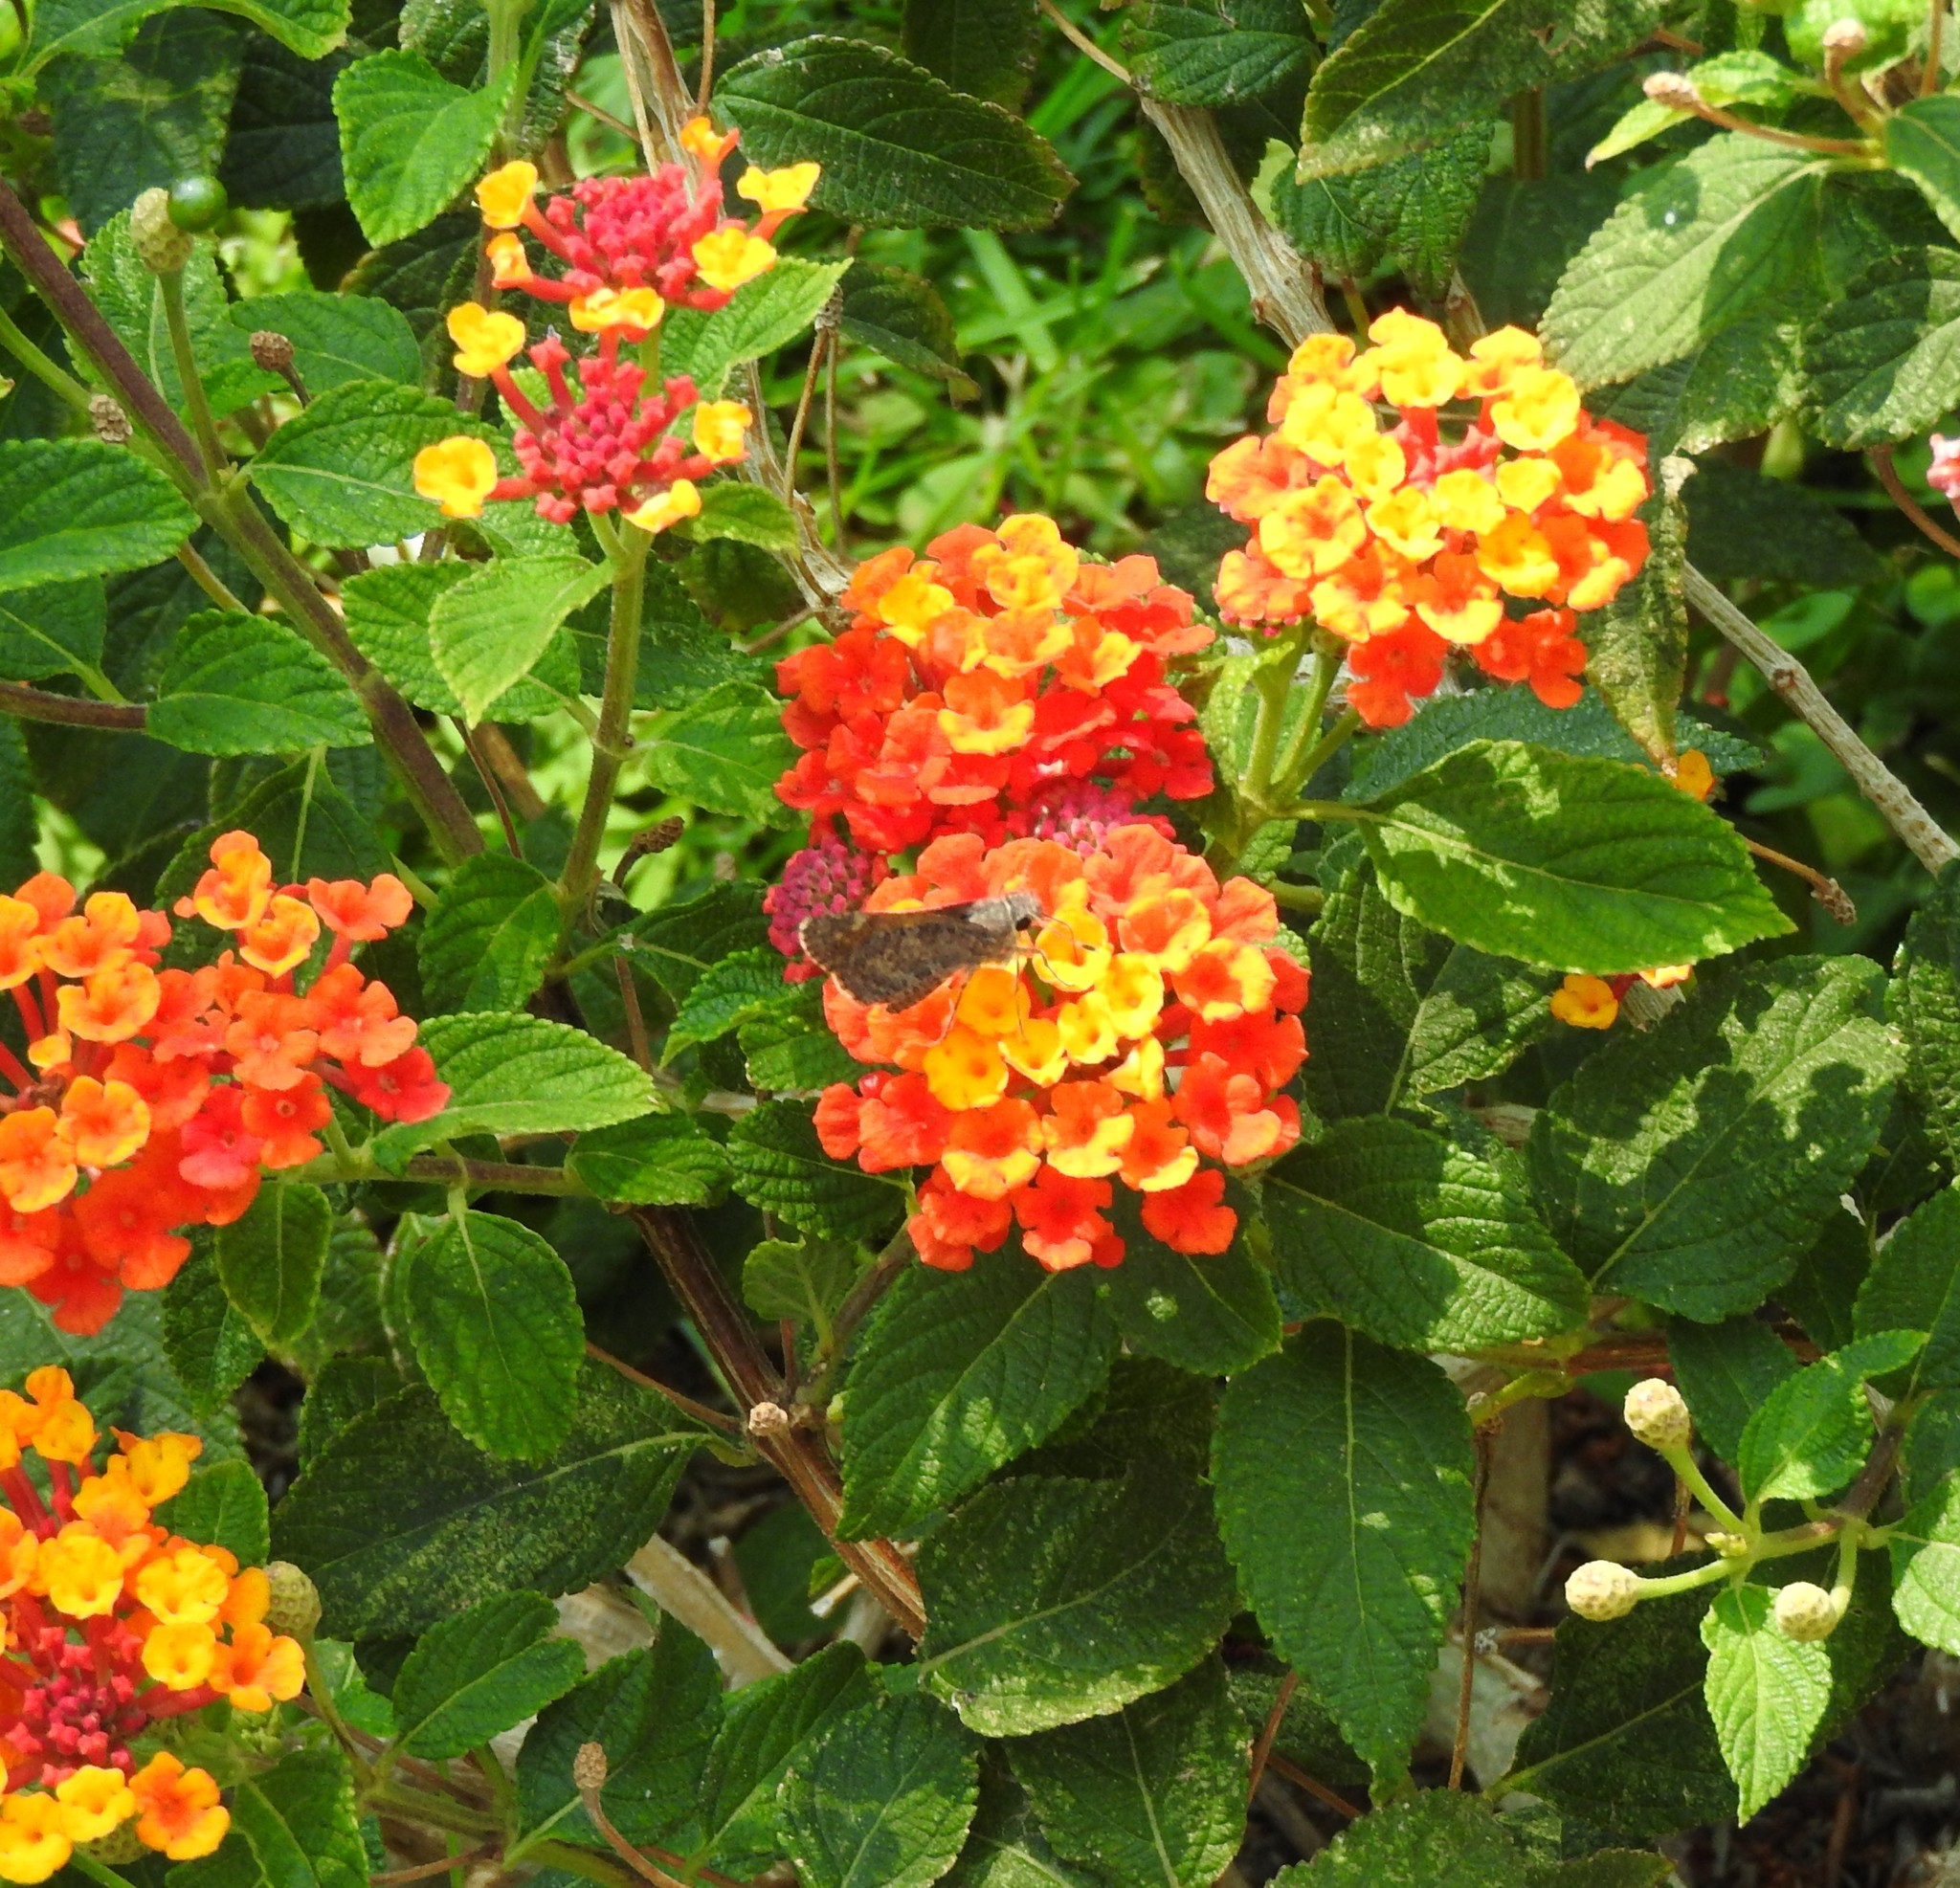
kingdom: Animalia
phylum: Arthropoda
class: Insecta
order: Lepidoptera
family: Hesperiidae
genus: Mastor
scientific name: Mastor fluonia
